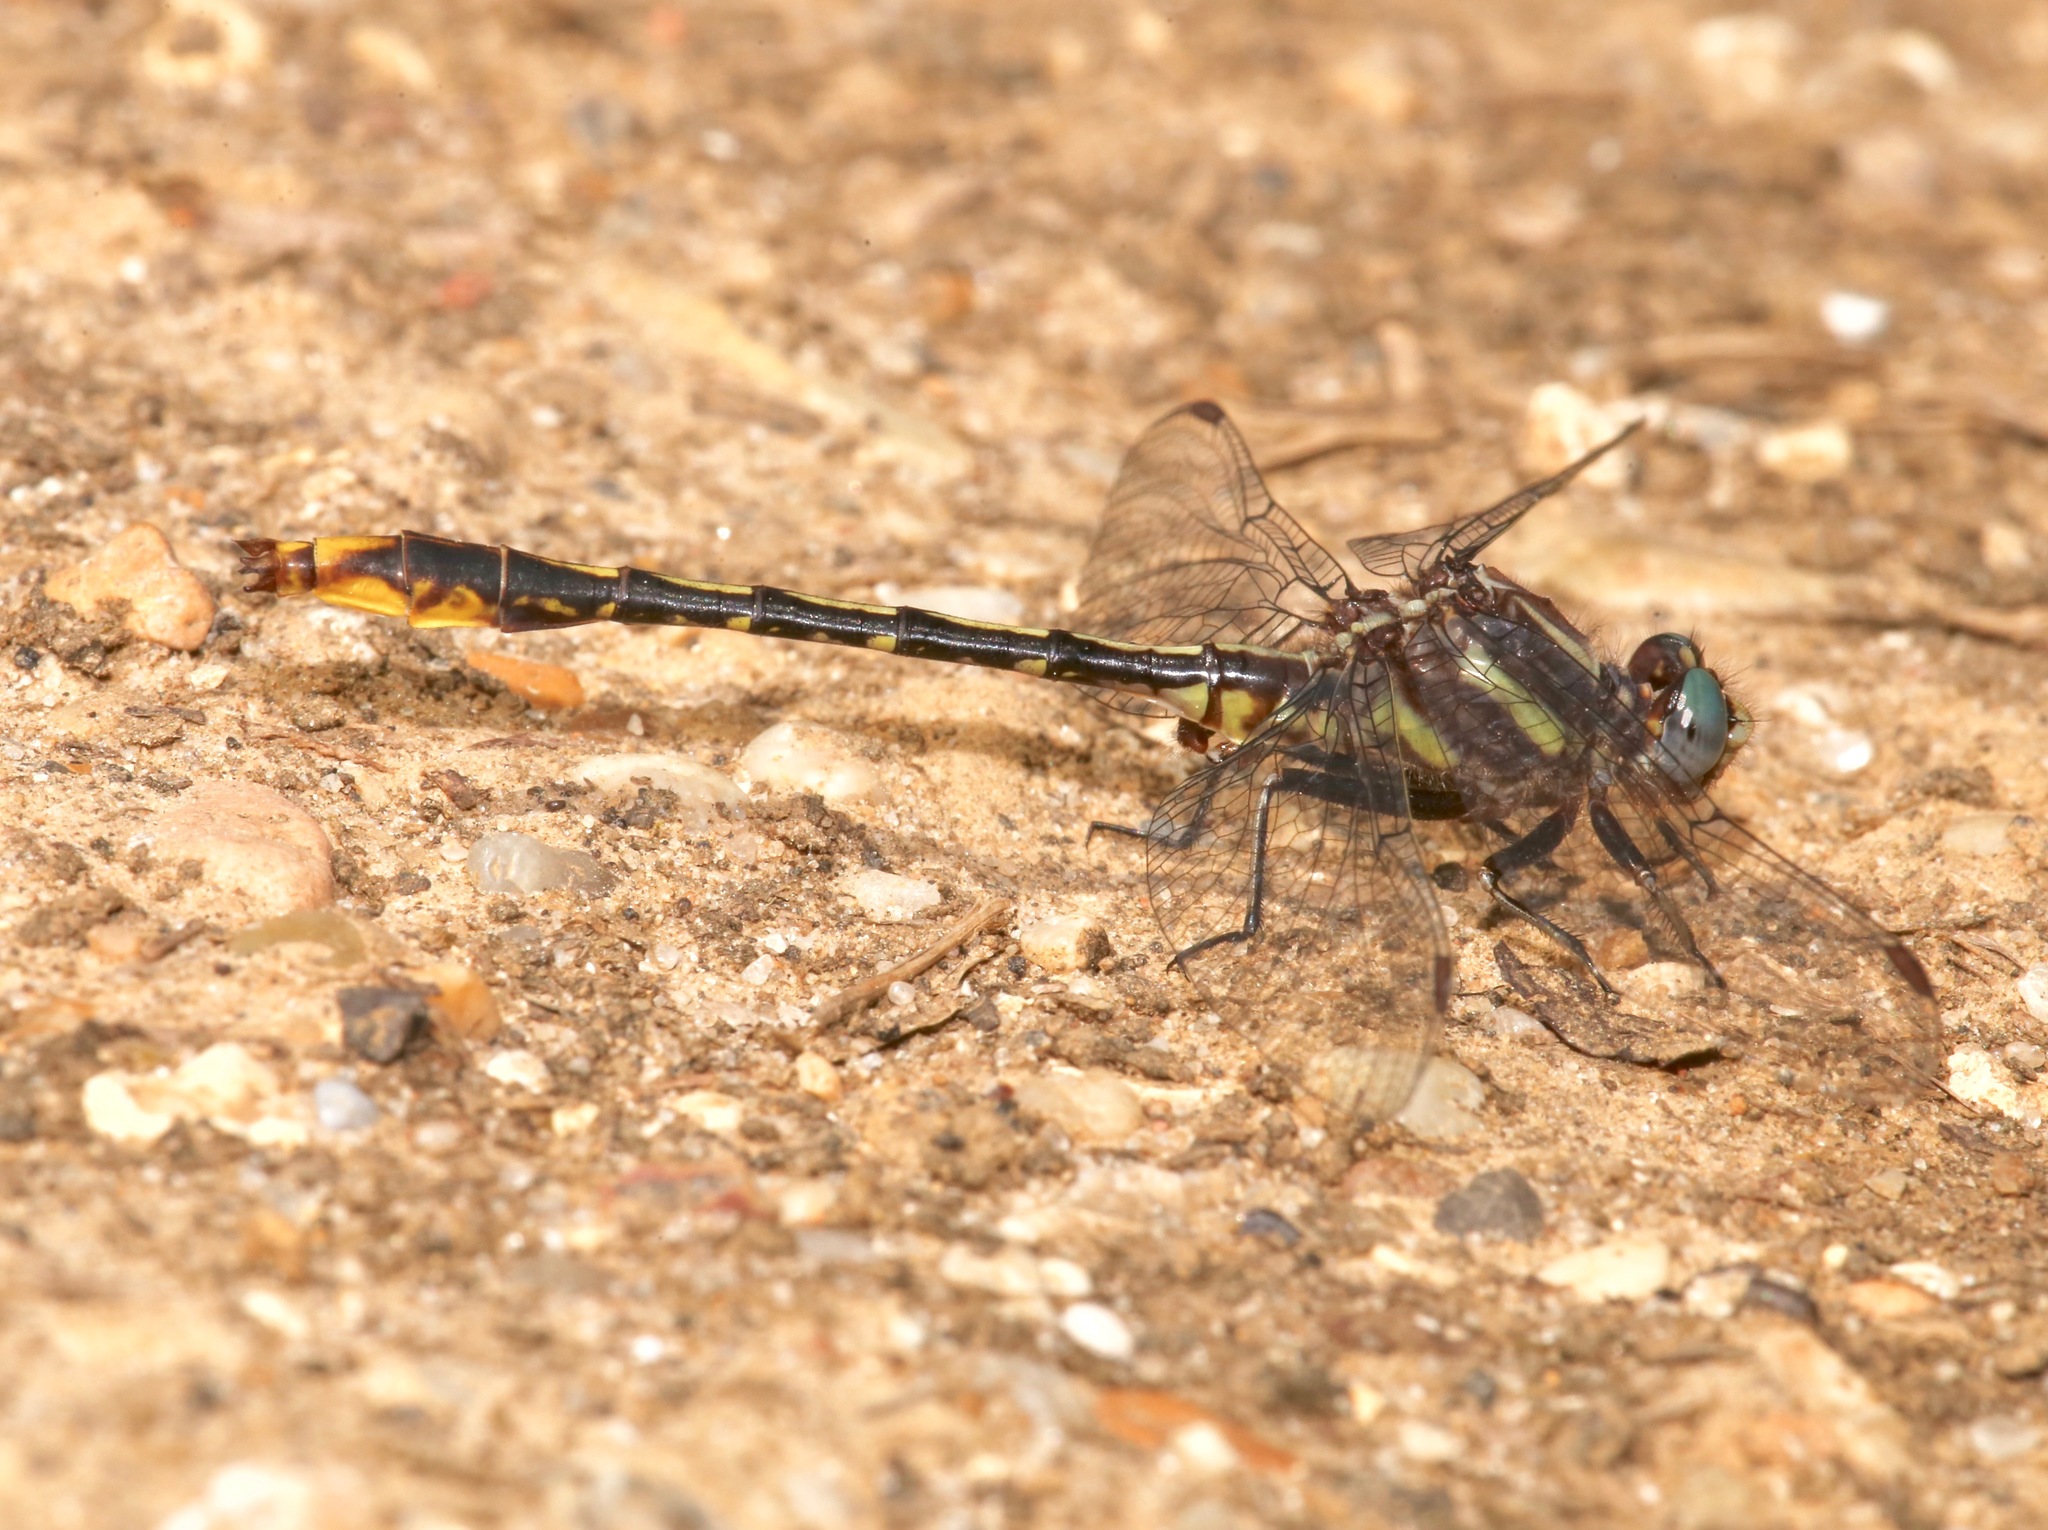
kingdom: Animalia
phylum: Arthropoda
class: Insecta
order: Odonata
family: Gomphidae
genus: Phanogomphus
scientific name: Phanogomphus exilis
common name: Lancet clubtail
